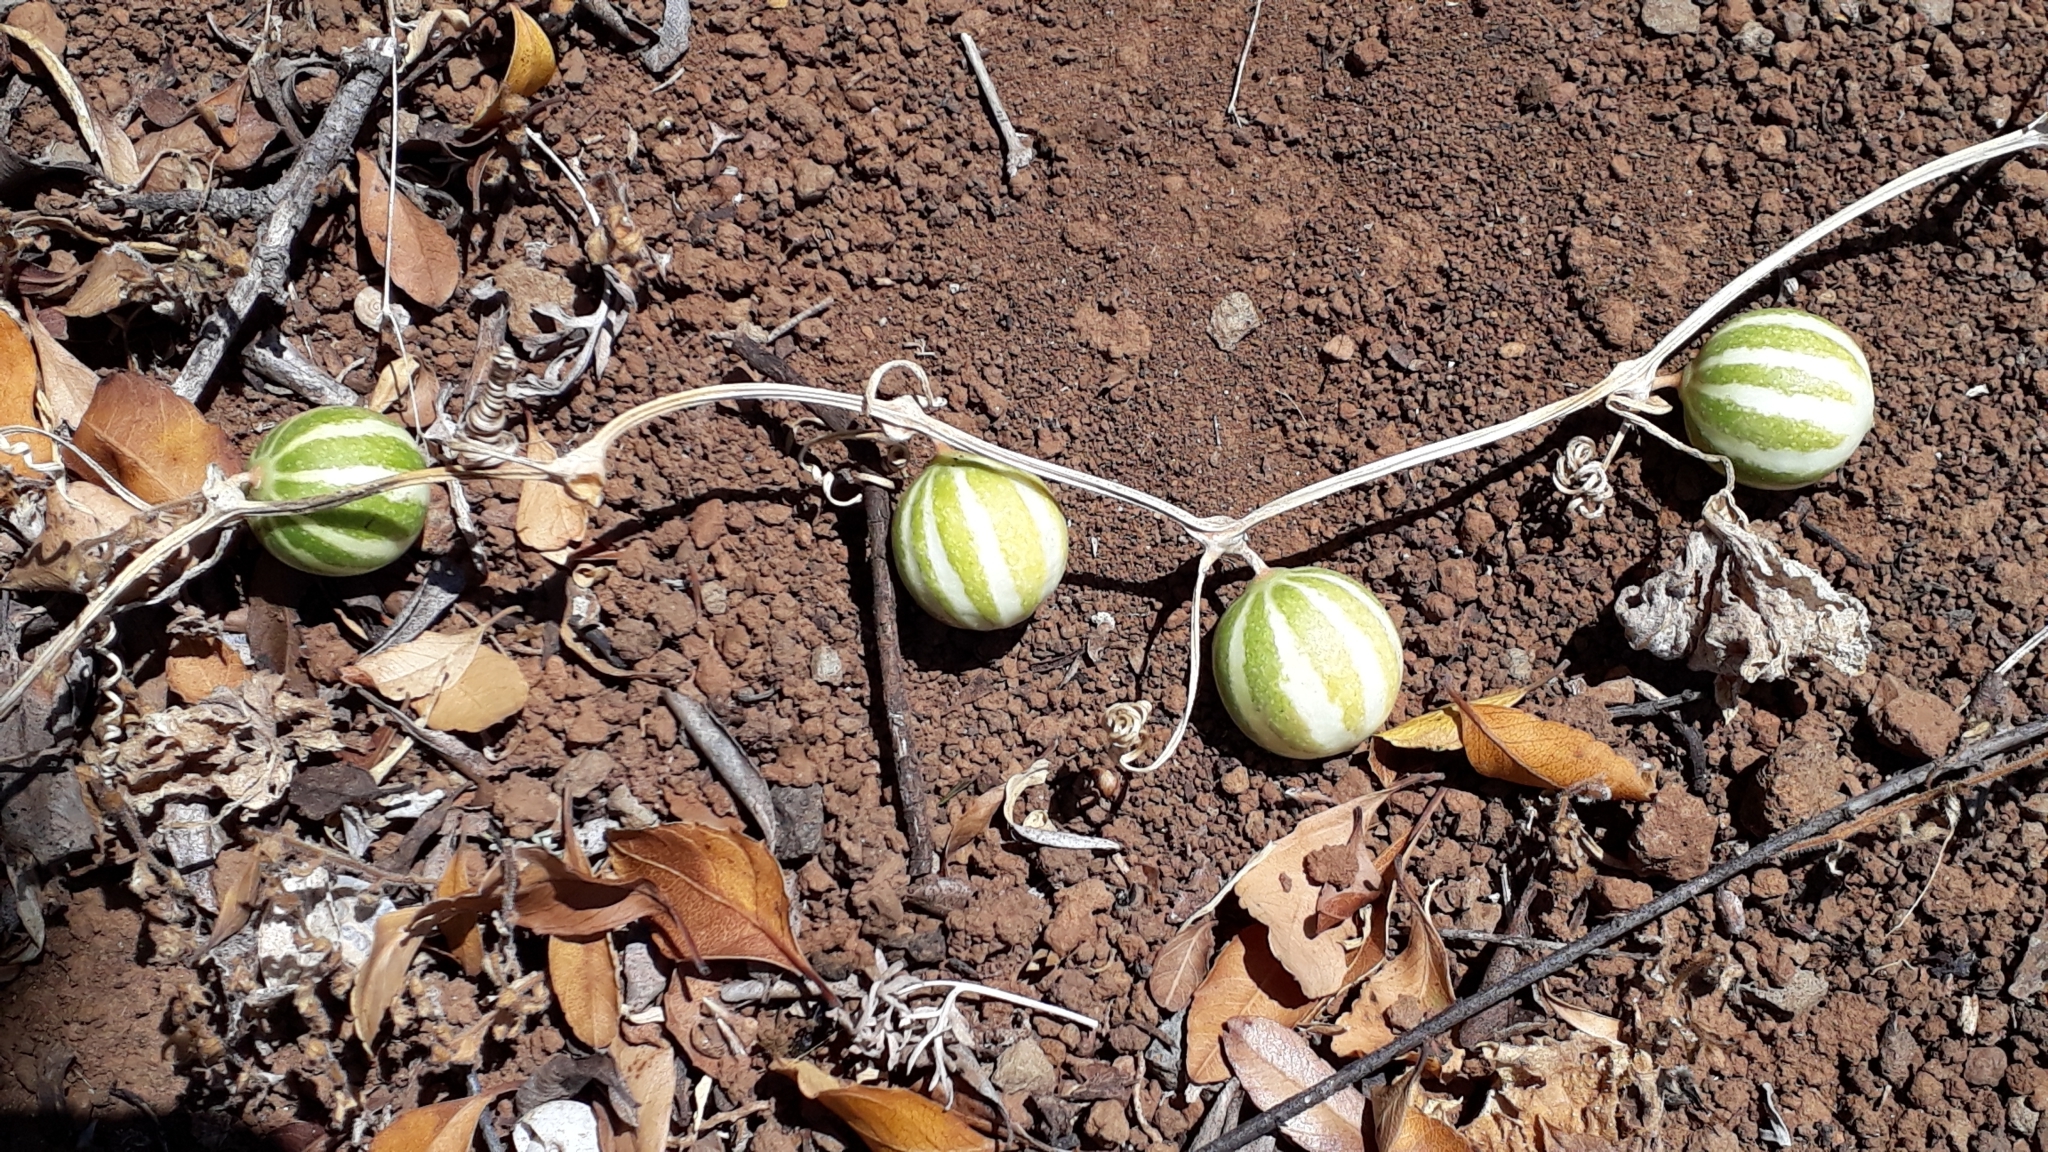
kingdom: Plantae
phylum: Tracheophyta
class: Magnoliopsida
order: Cucurbitales
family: Cucurbitaceae
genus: Bryonia
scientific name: Bryonia verrucosa
